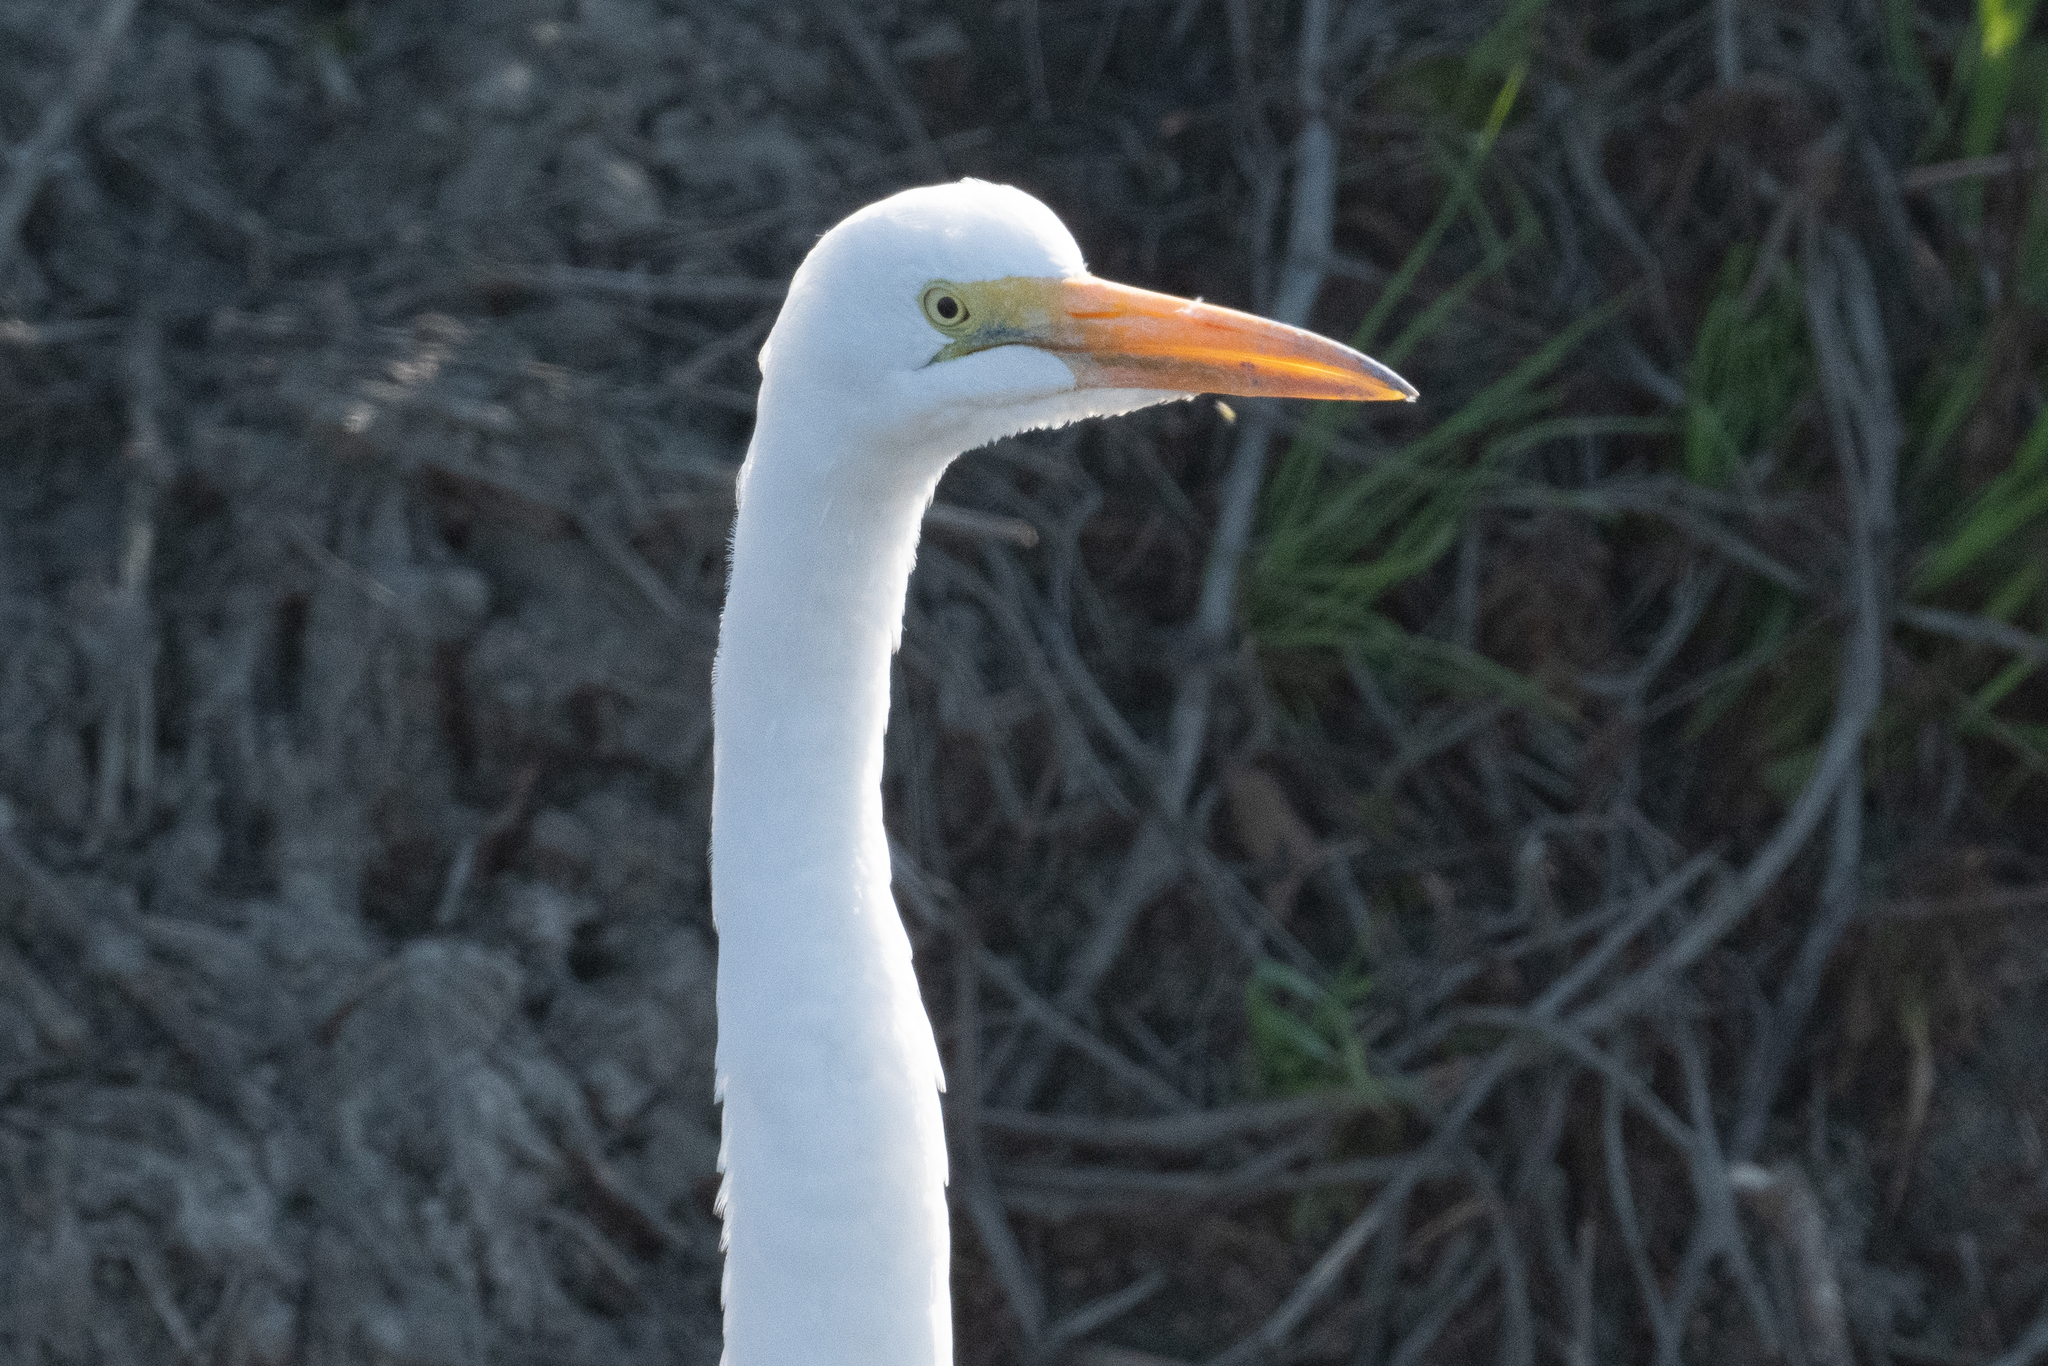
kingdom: Animalia
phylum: Chordata
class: Aves
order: Pelecaniformes
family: Ardeidae
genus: Ardea
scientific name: Ardea alba
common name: Great egret
